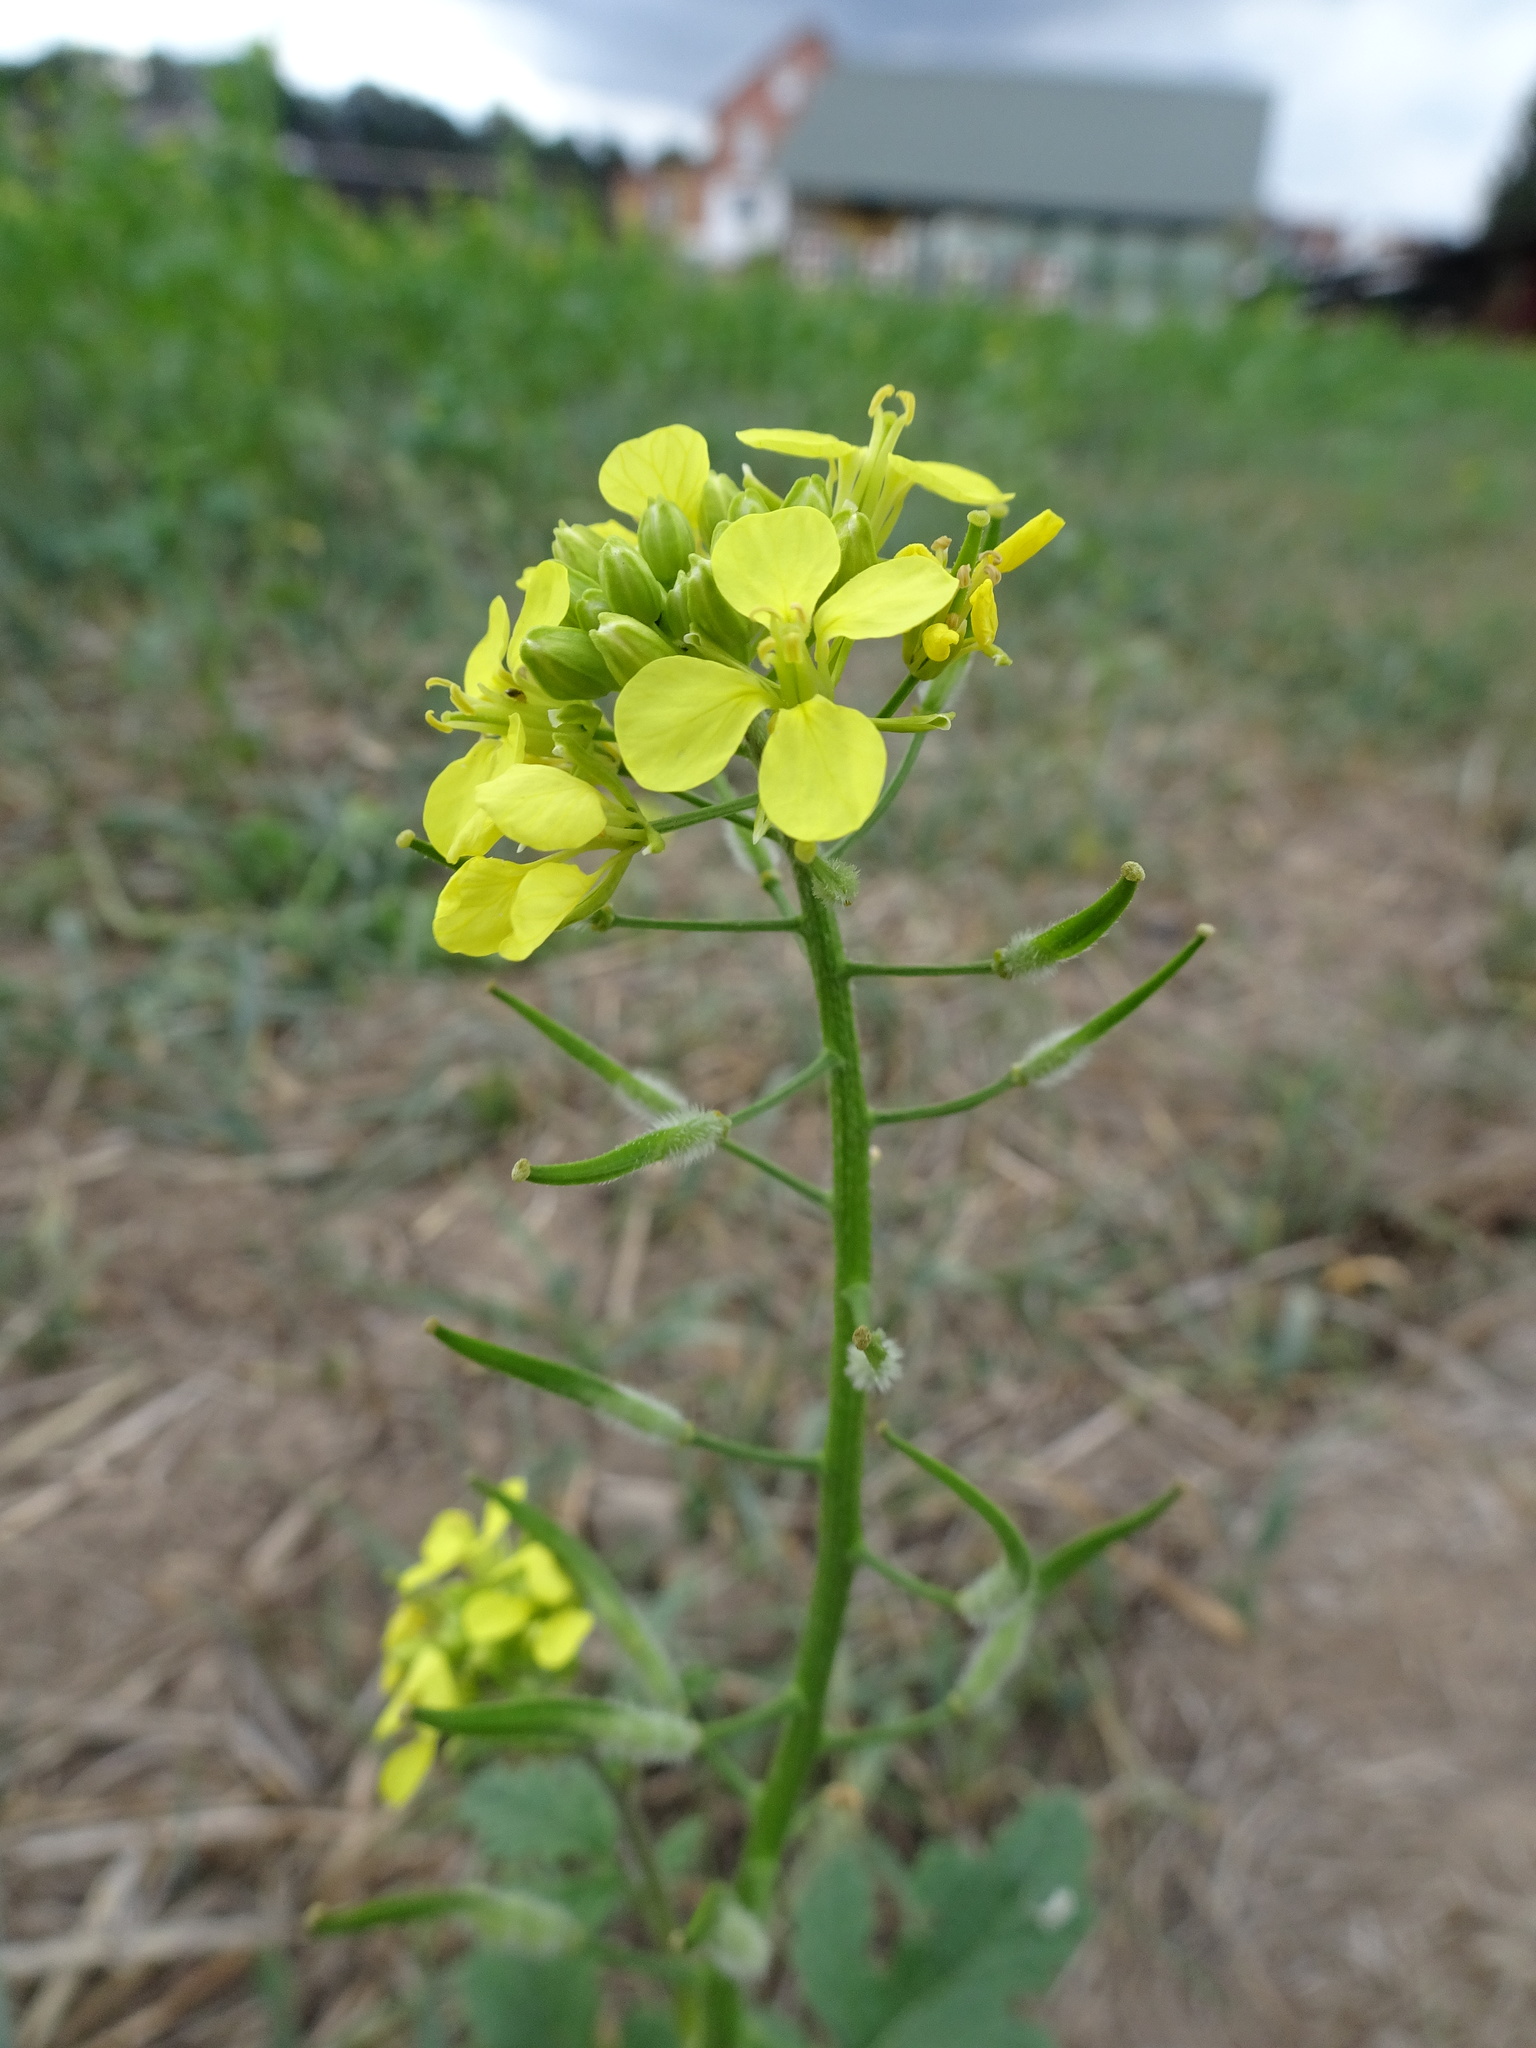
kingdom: Plantae
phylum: Tracheophyta
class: Magnoliopsida
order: Brassicales
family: Brassicaceae
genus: Sinapis
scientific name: Sinapis alba
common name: White mustard
